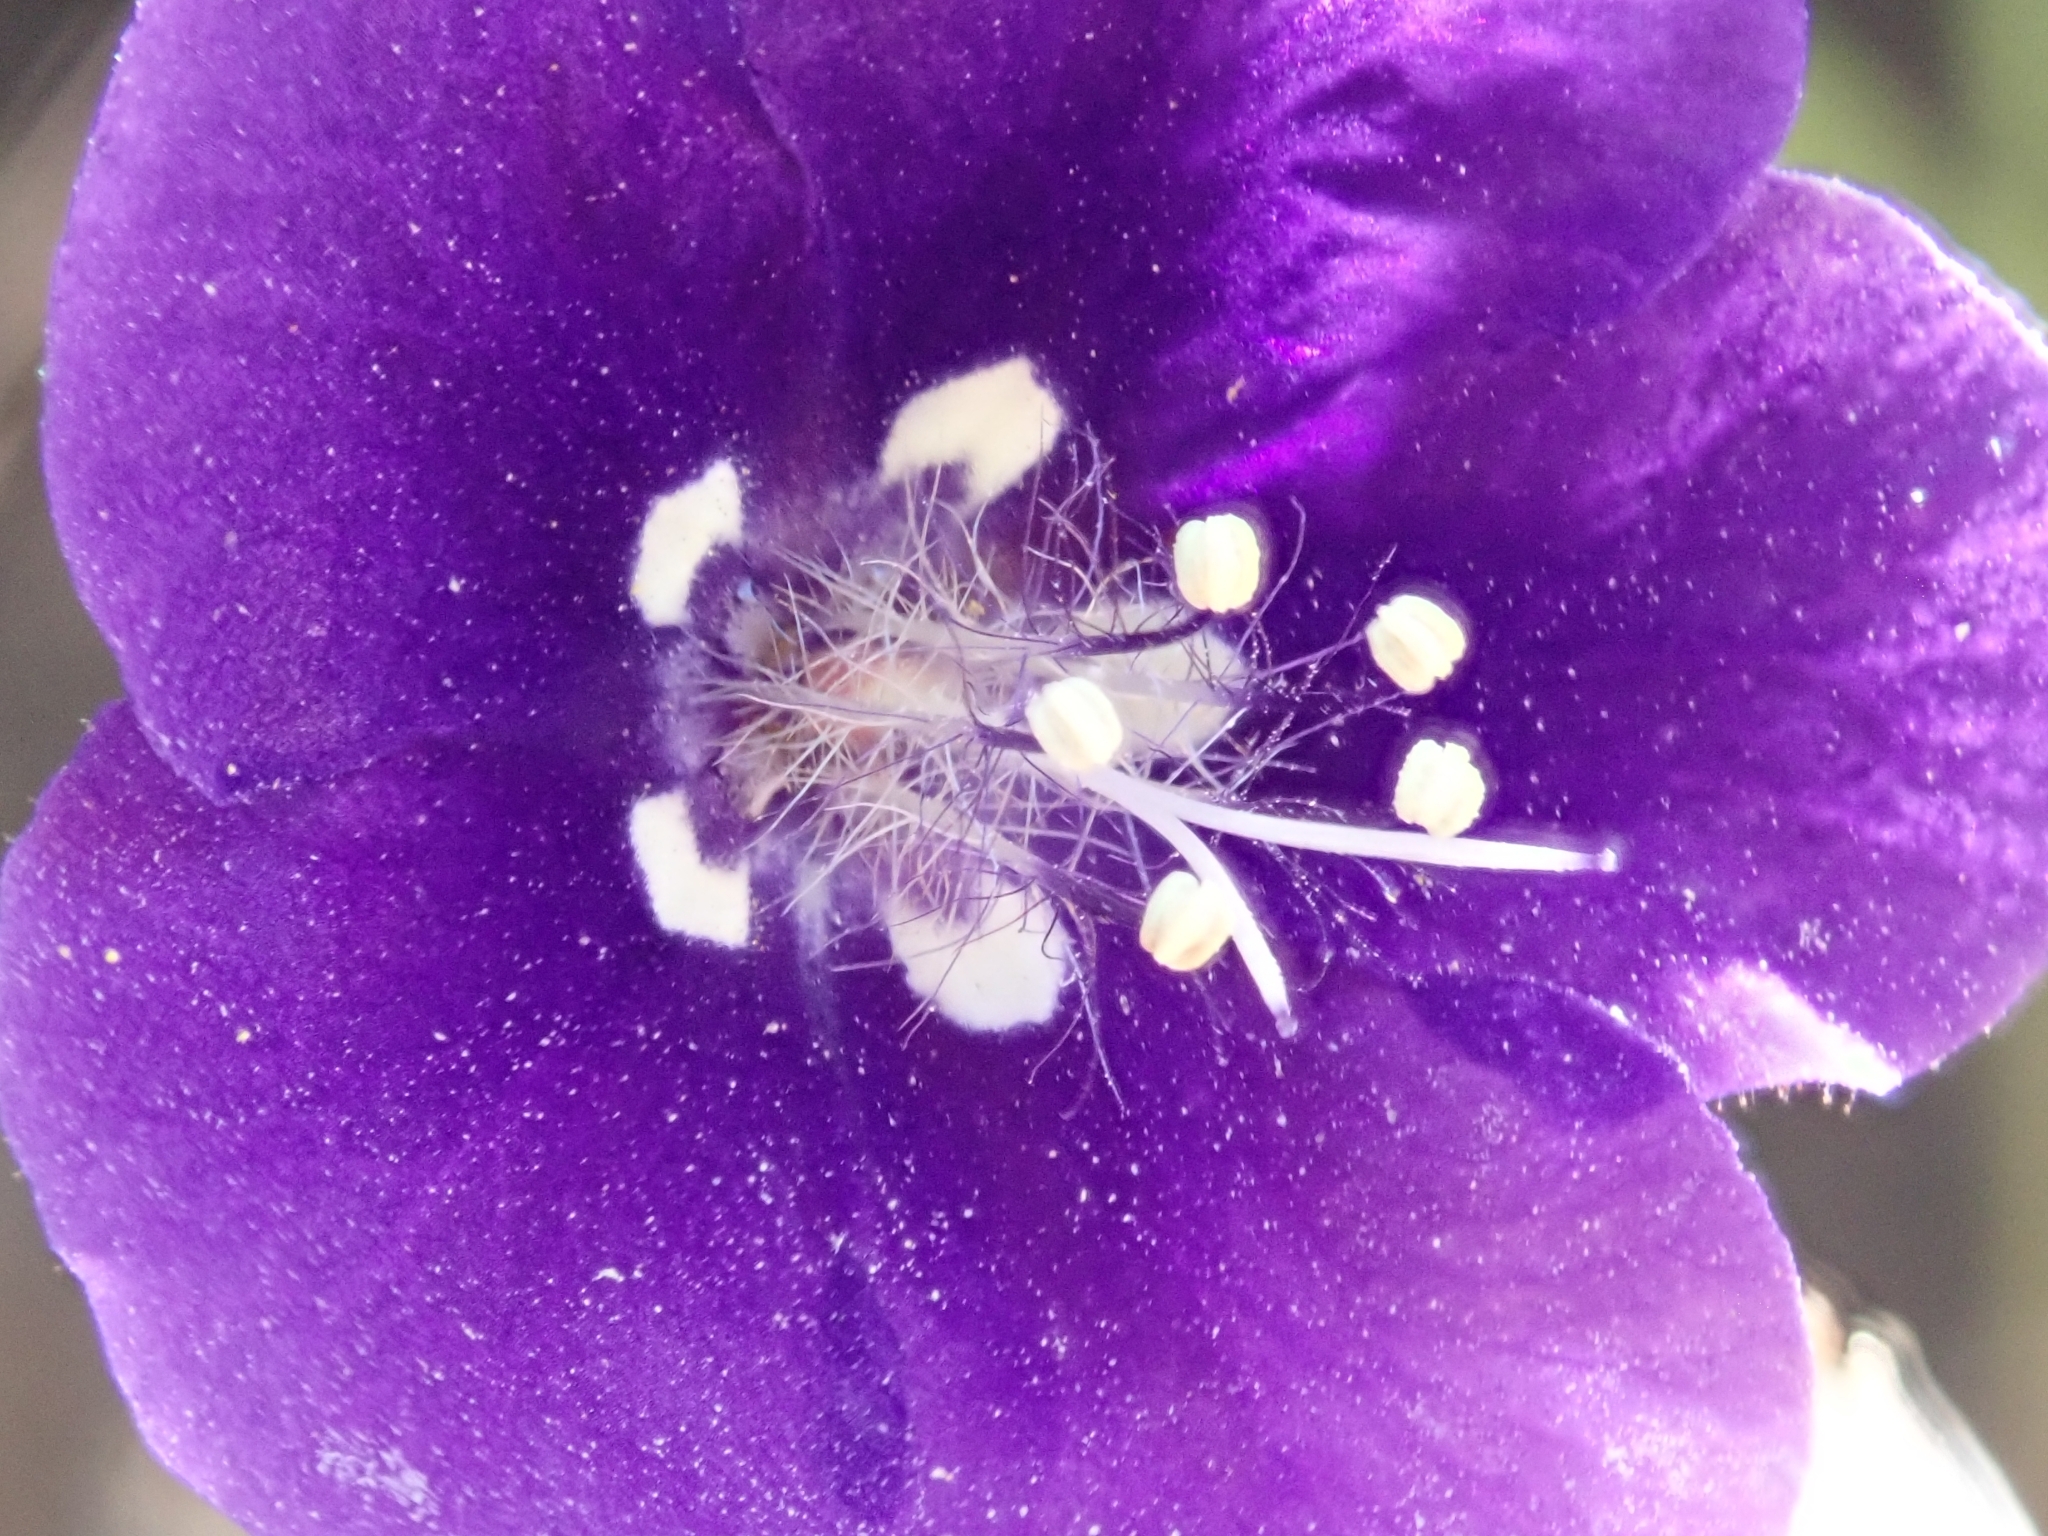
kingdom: Plantae
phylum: Tracheophyta
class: Magnoliopsida
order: Boraginales
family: Hydrophyllaceae
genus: Phacelia
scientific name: Phacelia parryi
